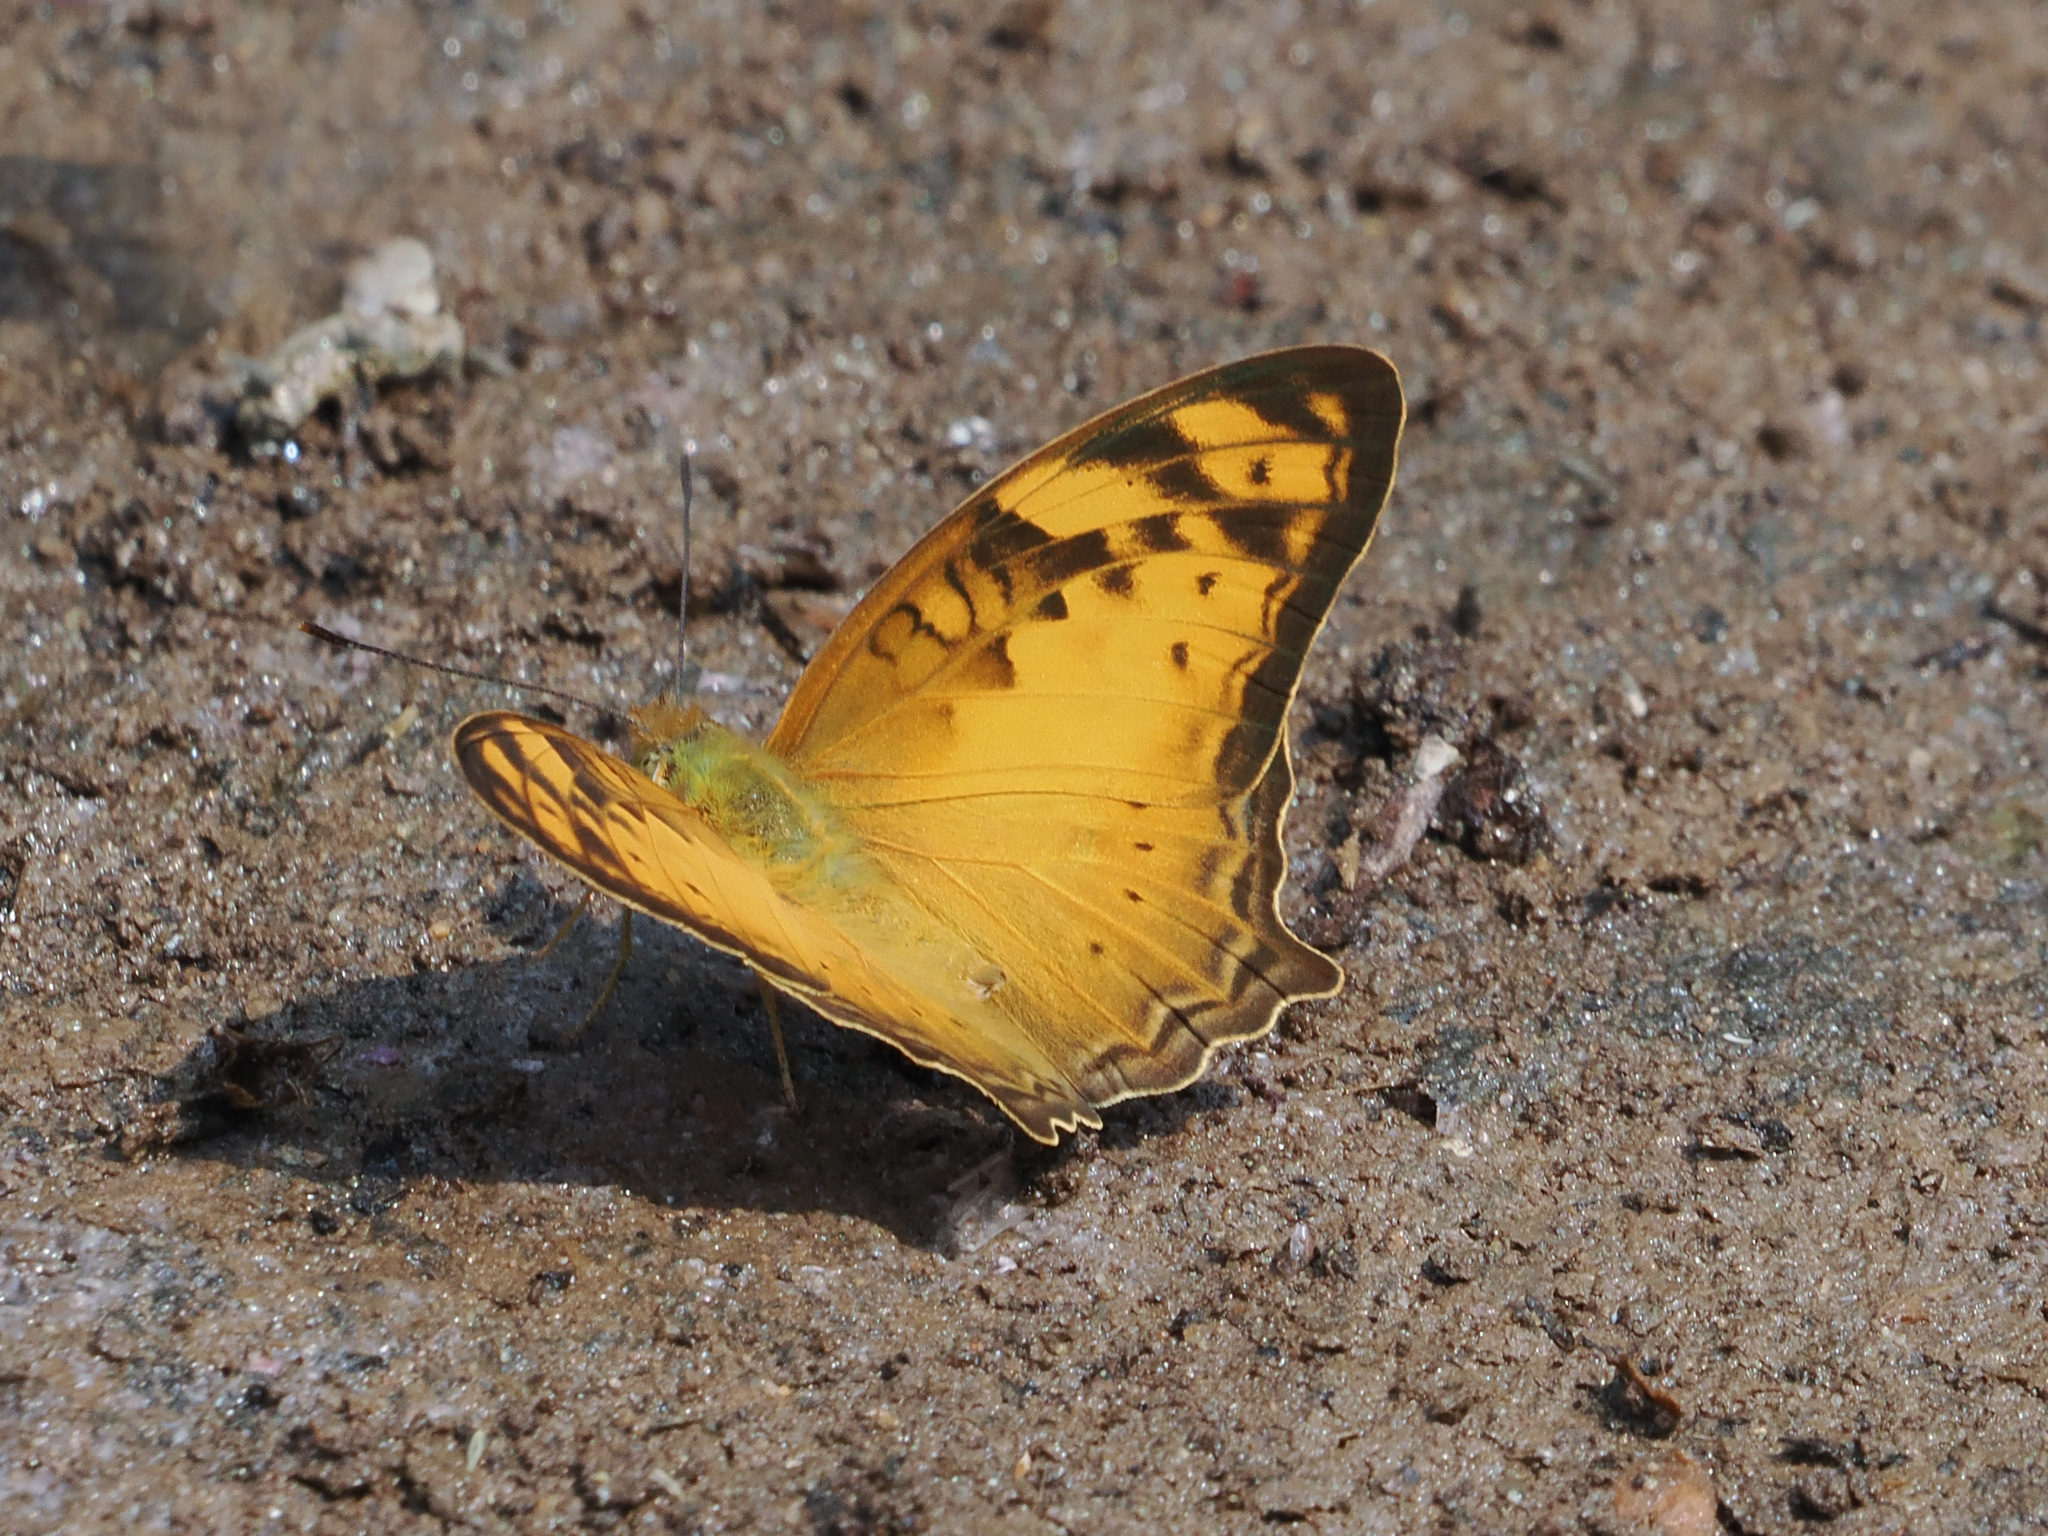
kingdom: Animalia
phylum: Arthropoda
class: Insecta
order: Lepidoptera
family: Nymphalidae
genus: Vagrans
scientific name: Vagrans sinha
